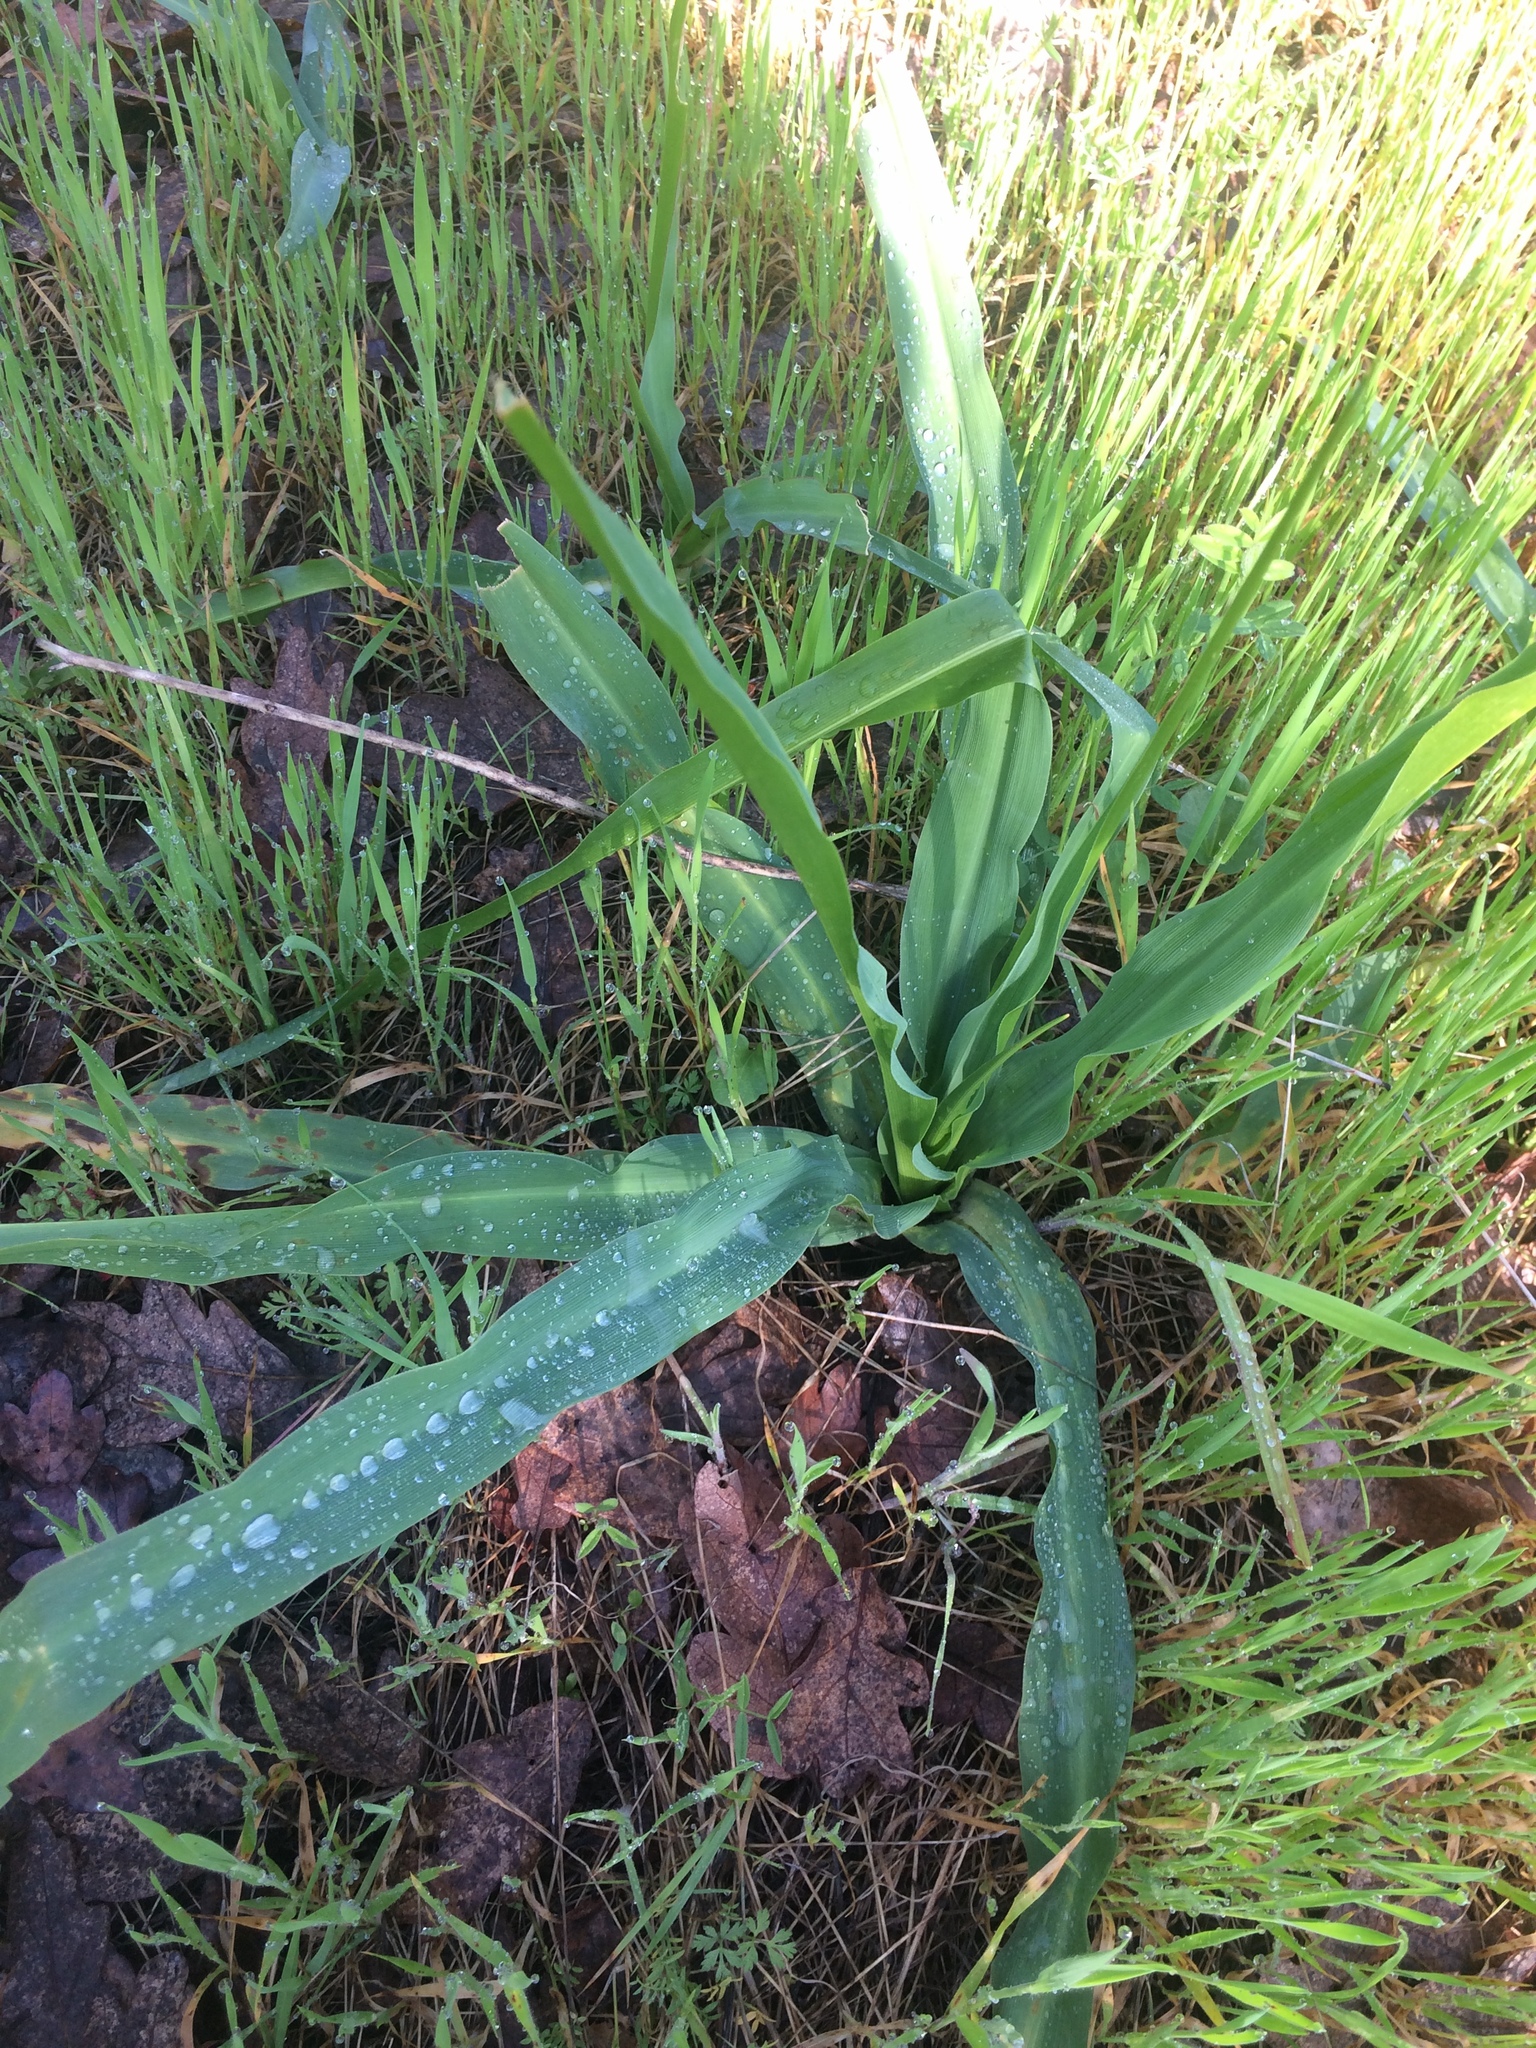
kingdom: Plantae
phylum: Tracheophyta
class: Liliopsida
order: Asparagales
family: Asparagaceae
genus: Chlorogalum
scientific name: Chlorogalum pomeridianum
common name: Amole
